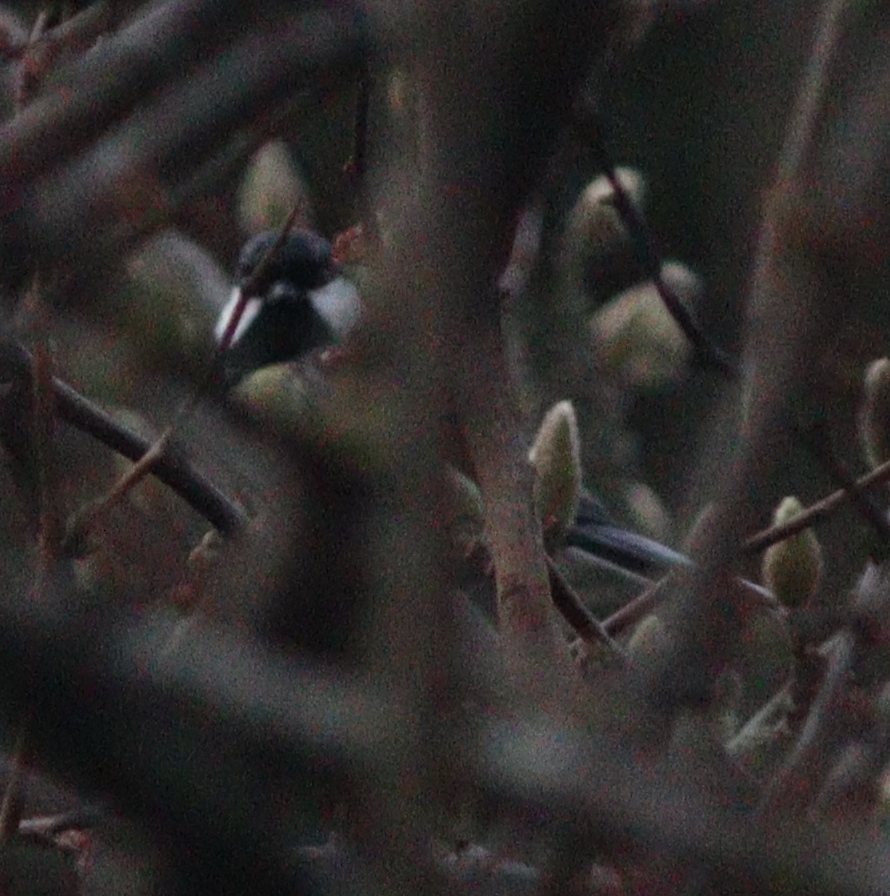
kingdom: Animalia
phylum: Chordata
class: Aves
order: Passeriformes
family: Paridae
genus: Parus
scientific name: Parus major
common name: Great tit
